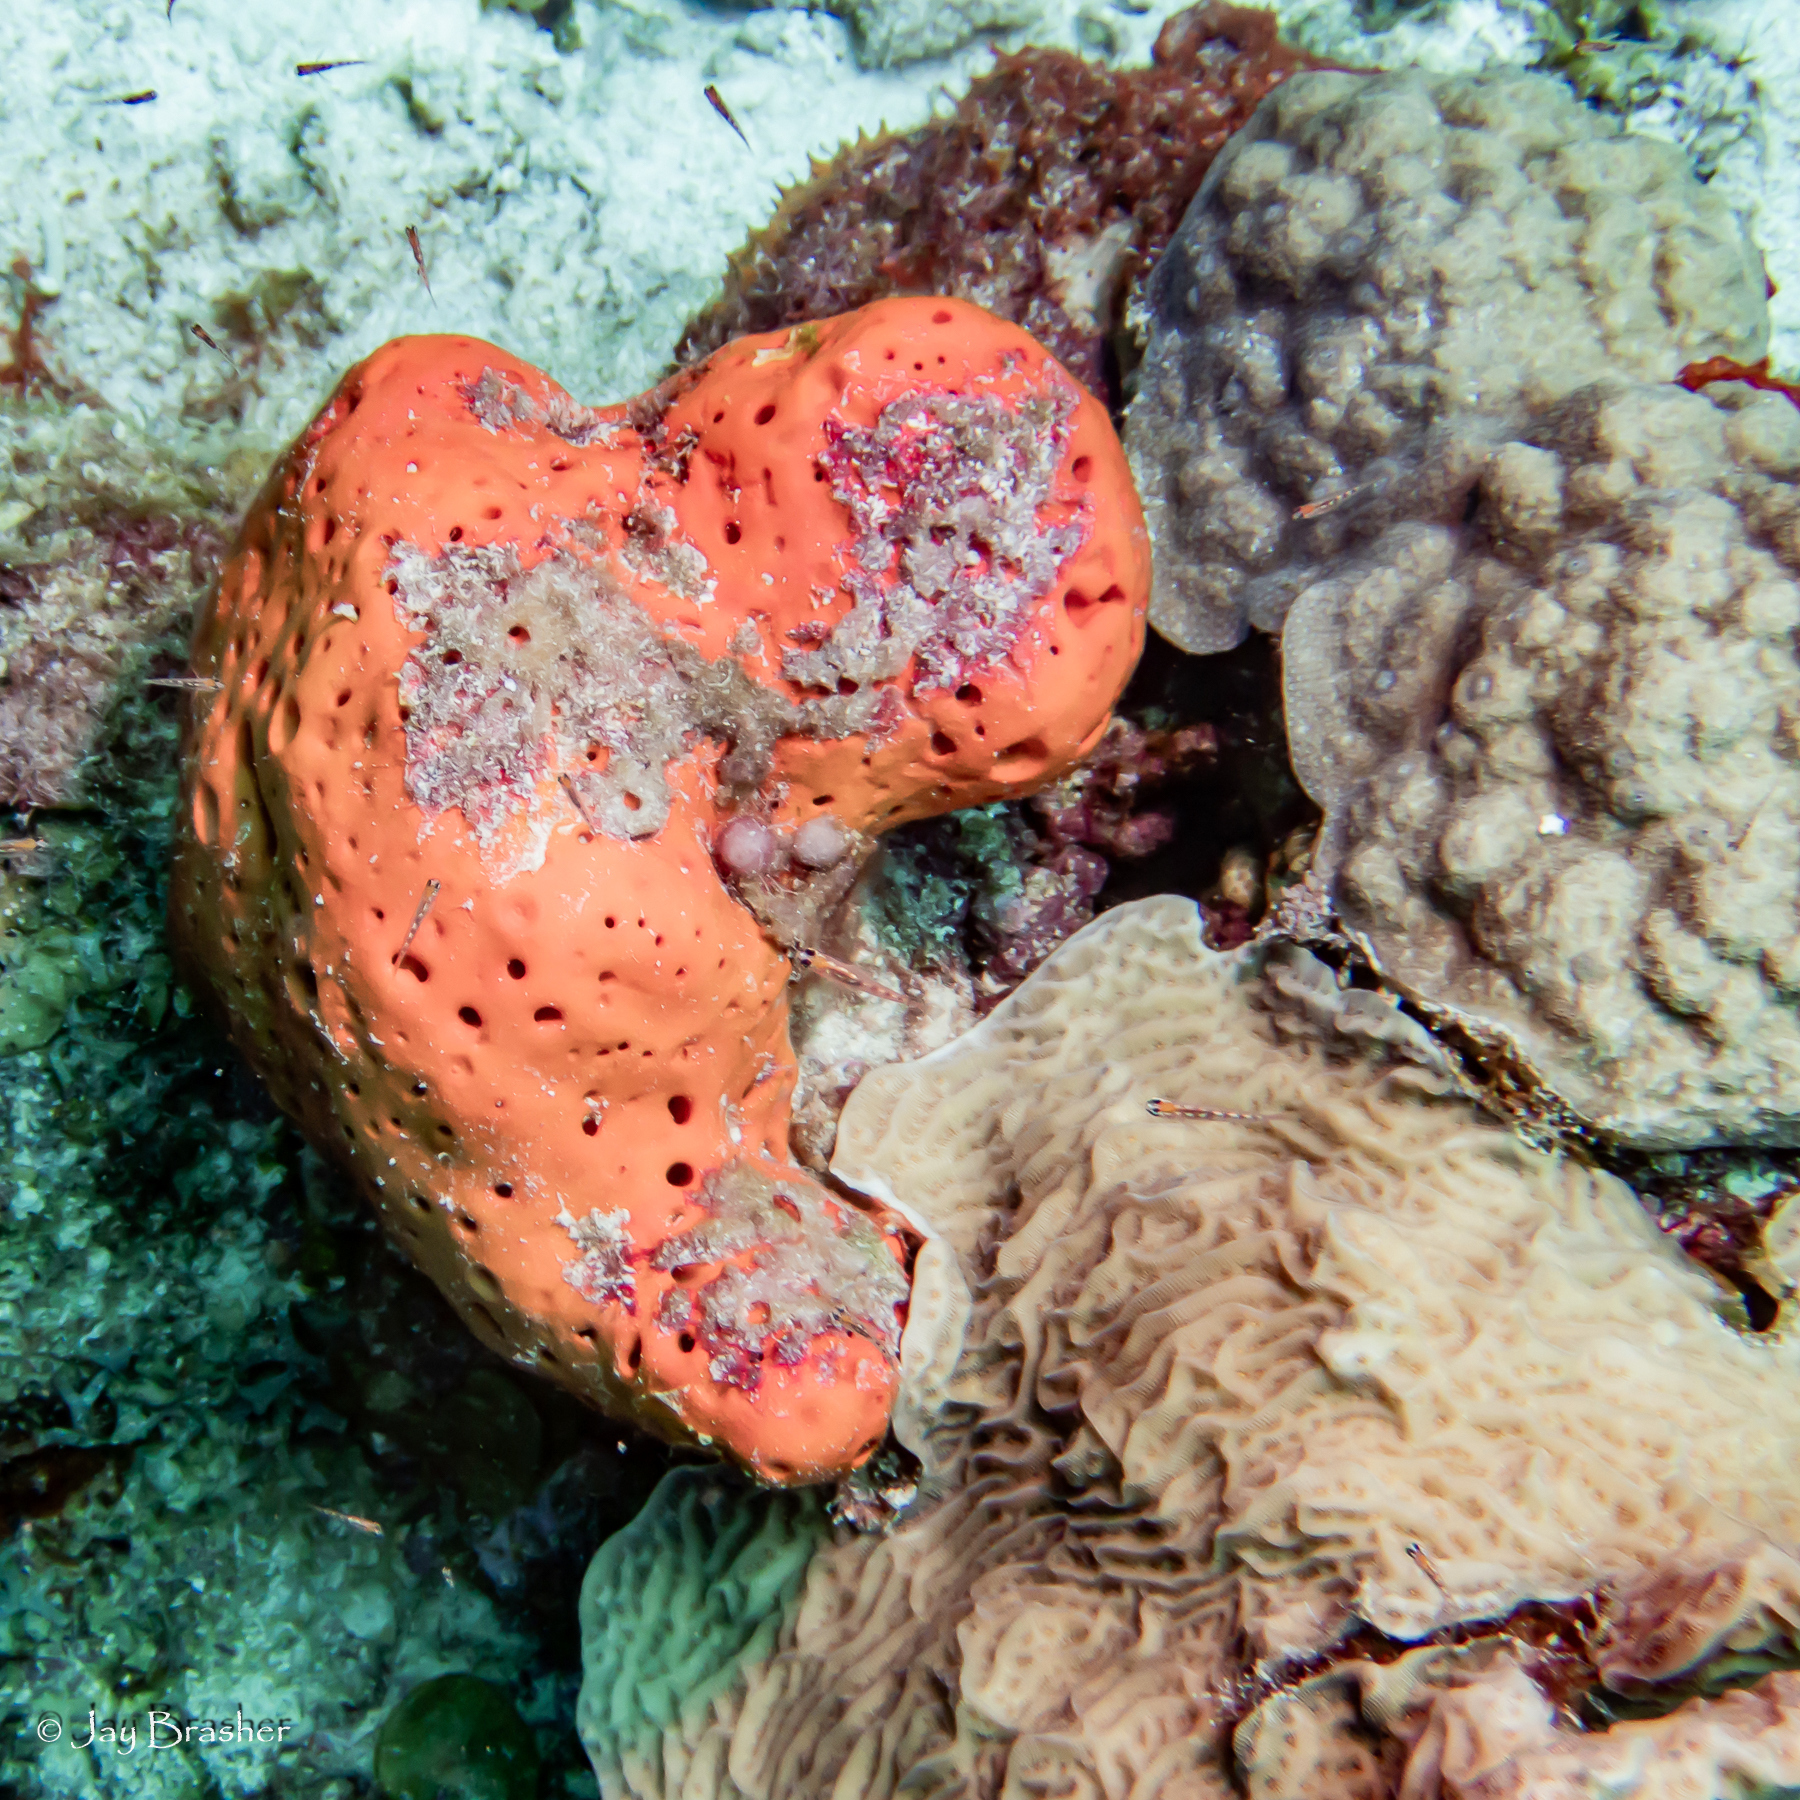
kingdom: Animalia
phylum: Porifera
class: Demospongiae
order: Agelasida
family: Agelasidae
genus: Agelas
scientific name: Agelas sventres
